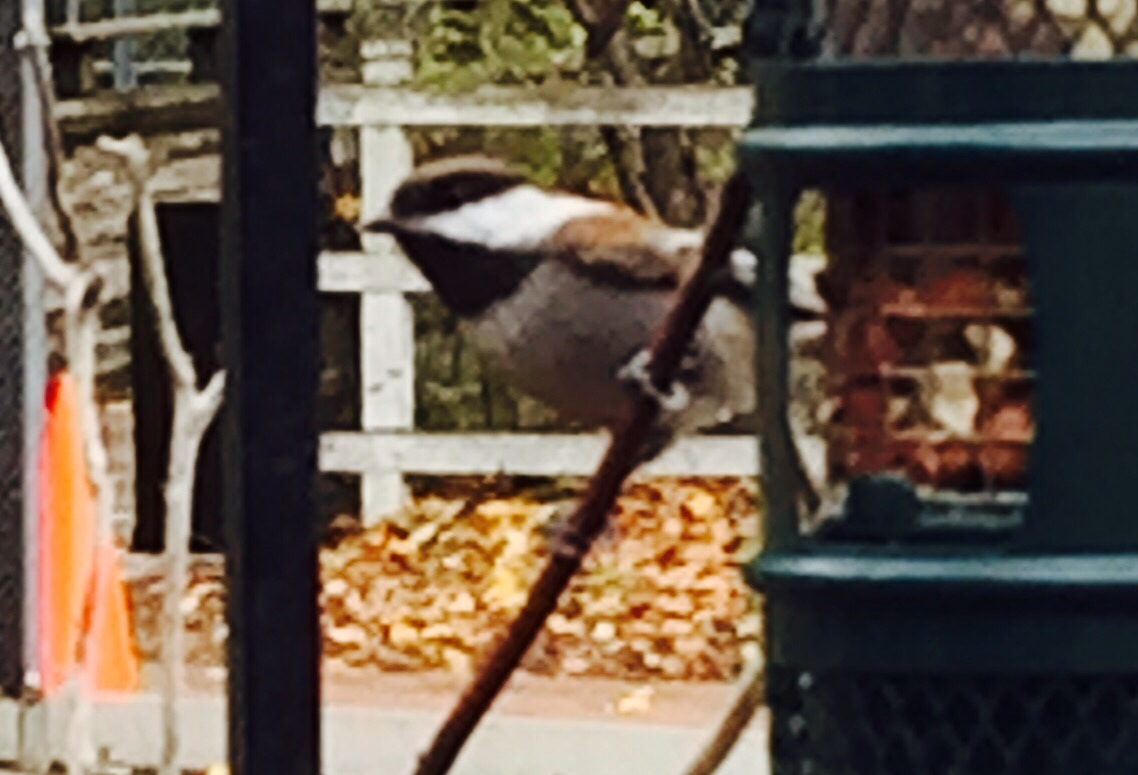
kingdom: Animalia
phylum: Chordata
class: Aves
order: Passeriformes
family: Paridae
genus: Poecile
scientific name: Poecile rufescens
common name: Chestnut-backed chickadee
